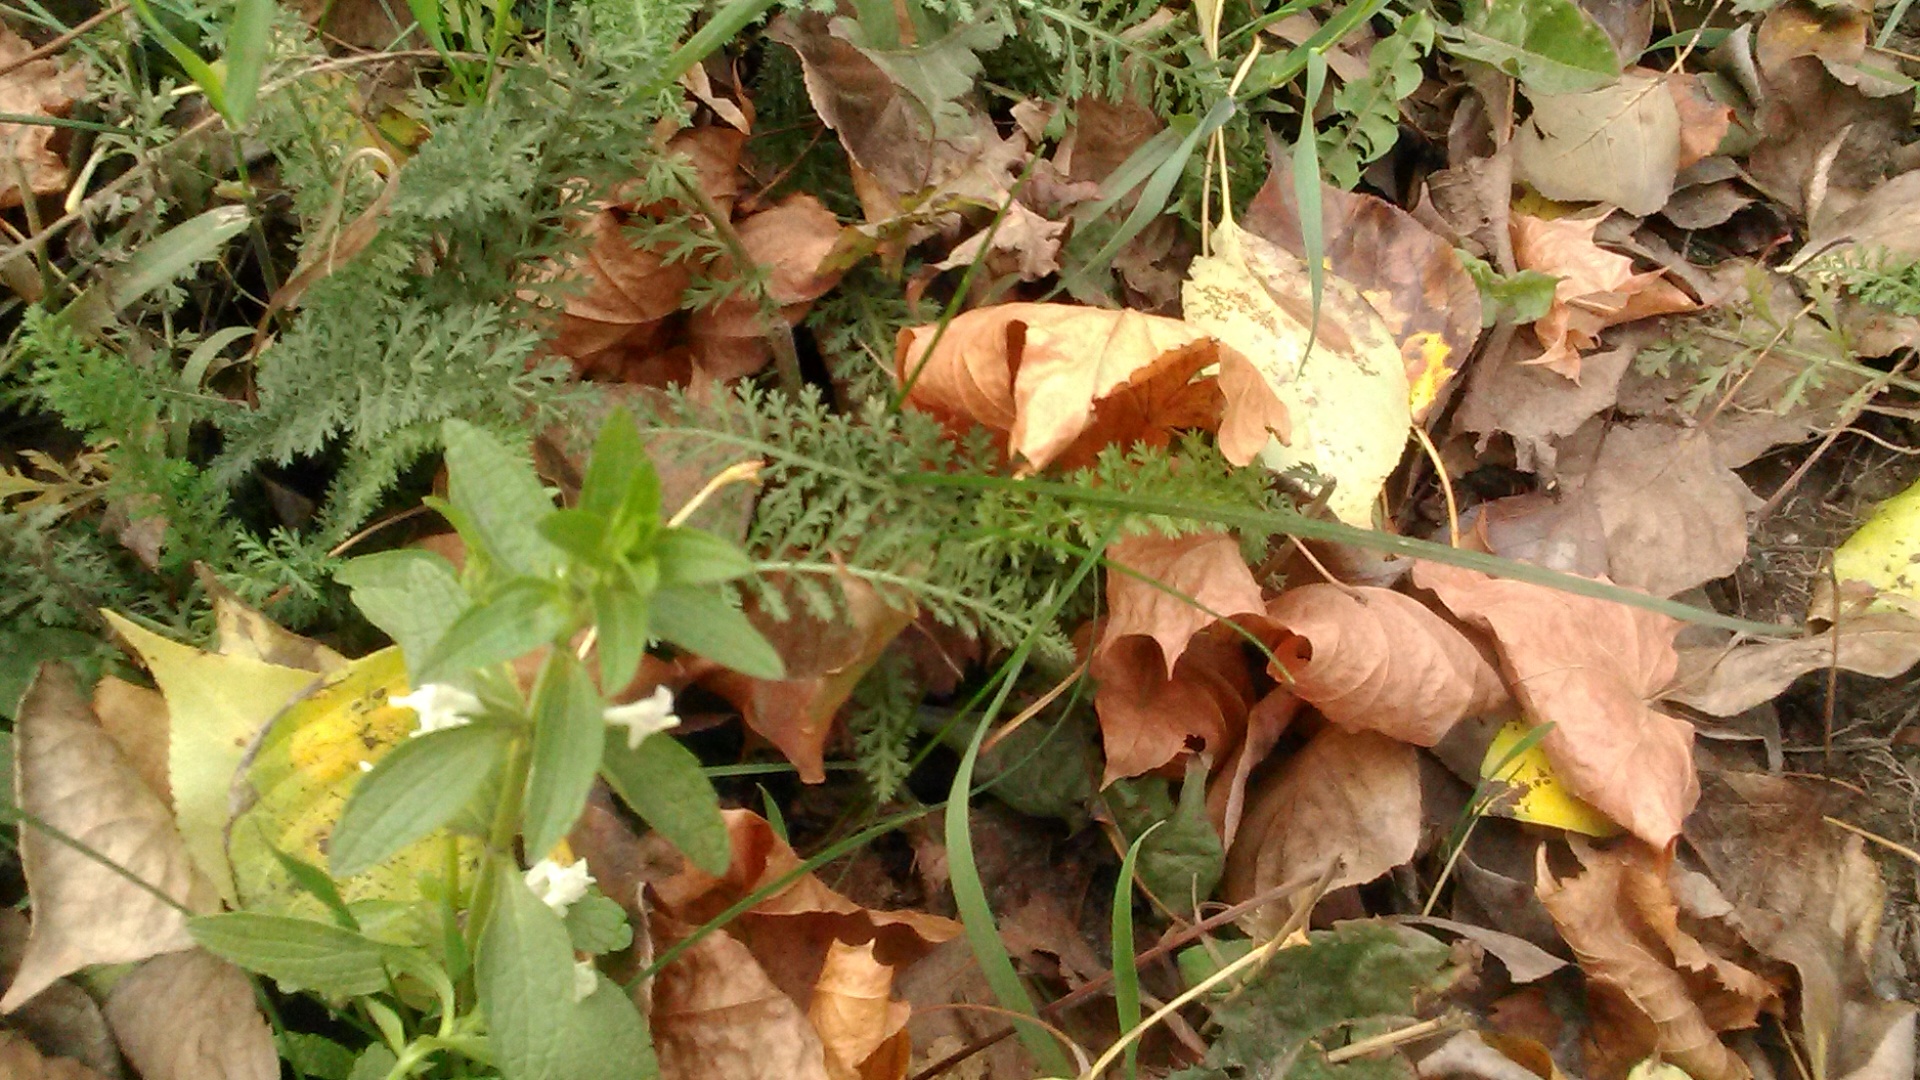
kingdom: Plantae
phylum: Tracheophyta
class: Magnoliopsida
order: Lamiales
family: Lamiaceae
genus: Stachys
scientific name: Stachys annua
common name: Annual yellow-woundwort
